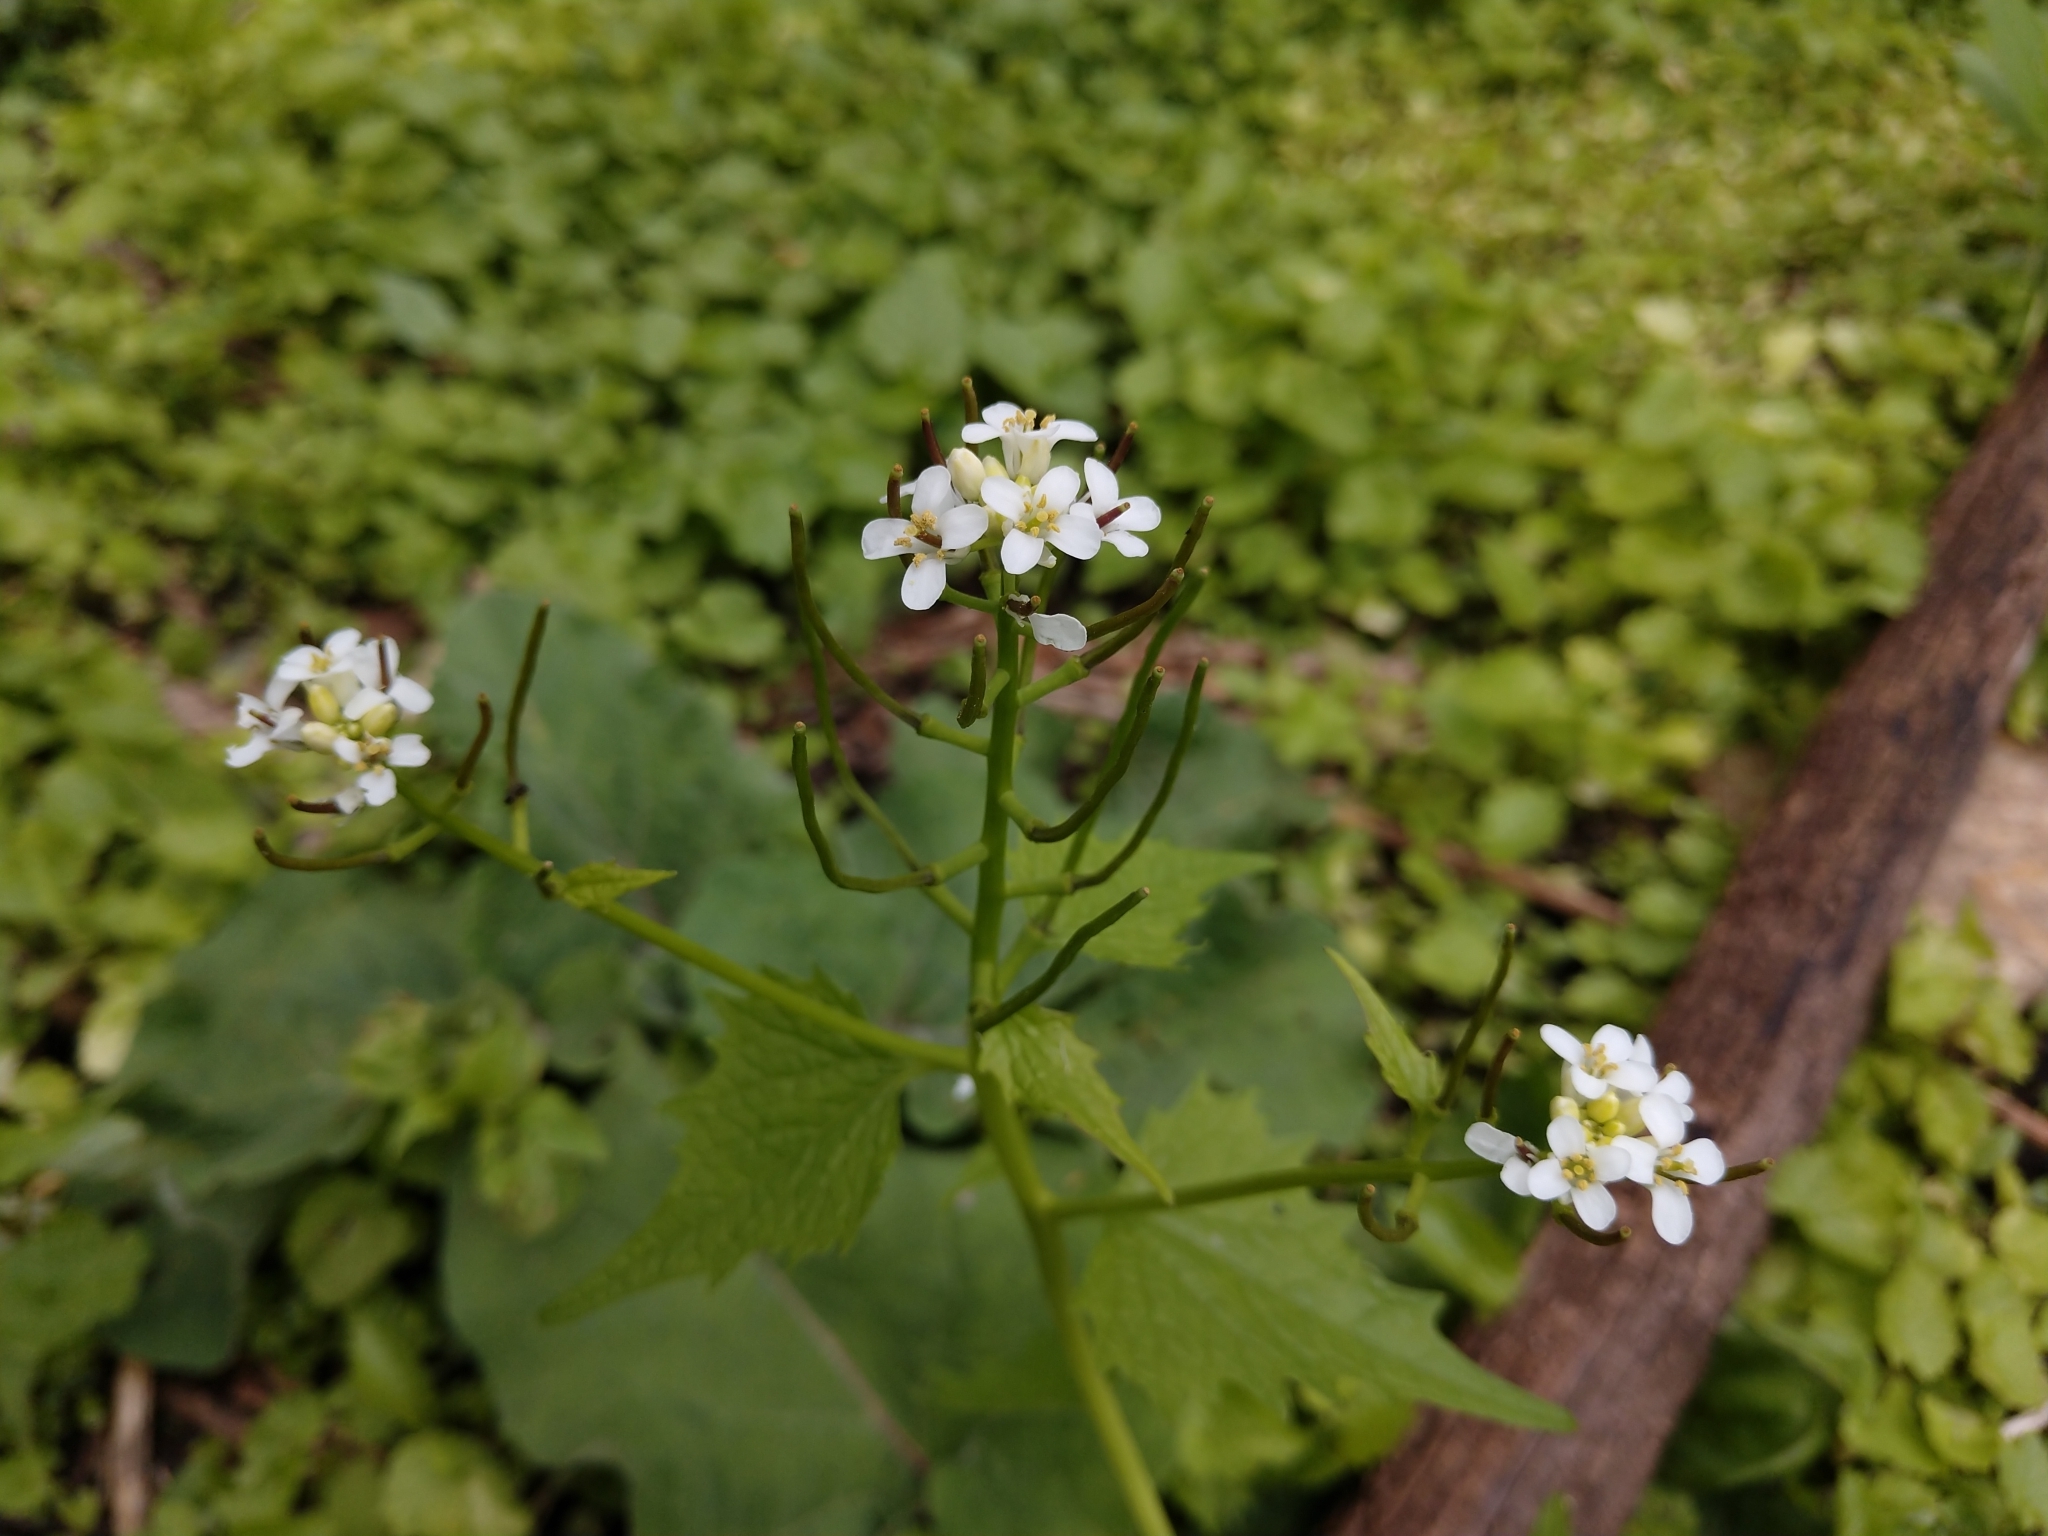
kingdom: Plantae
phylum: Tracheophyta
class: Magnoliopsida
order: Brassicales
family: Brassicaceae
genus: Alliaria
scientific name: Alliaria petiolata
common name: Garlic mustard
